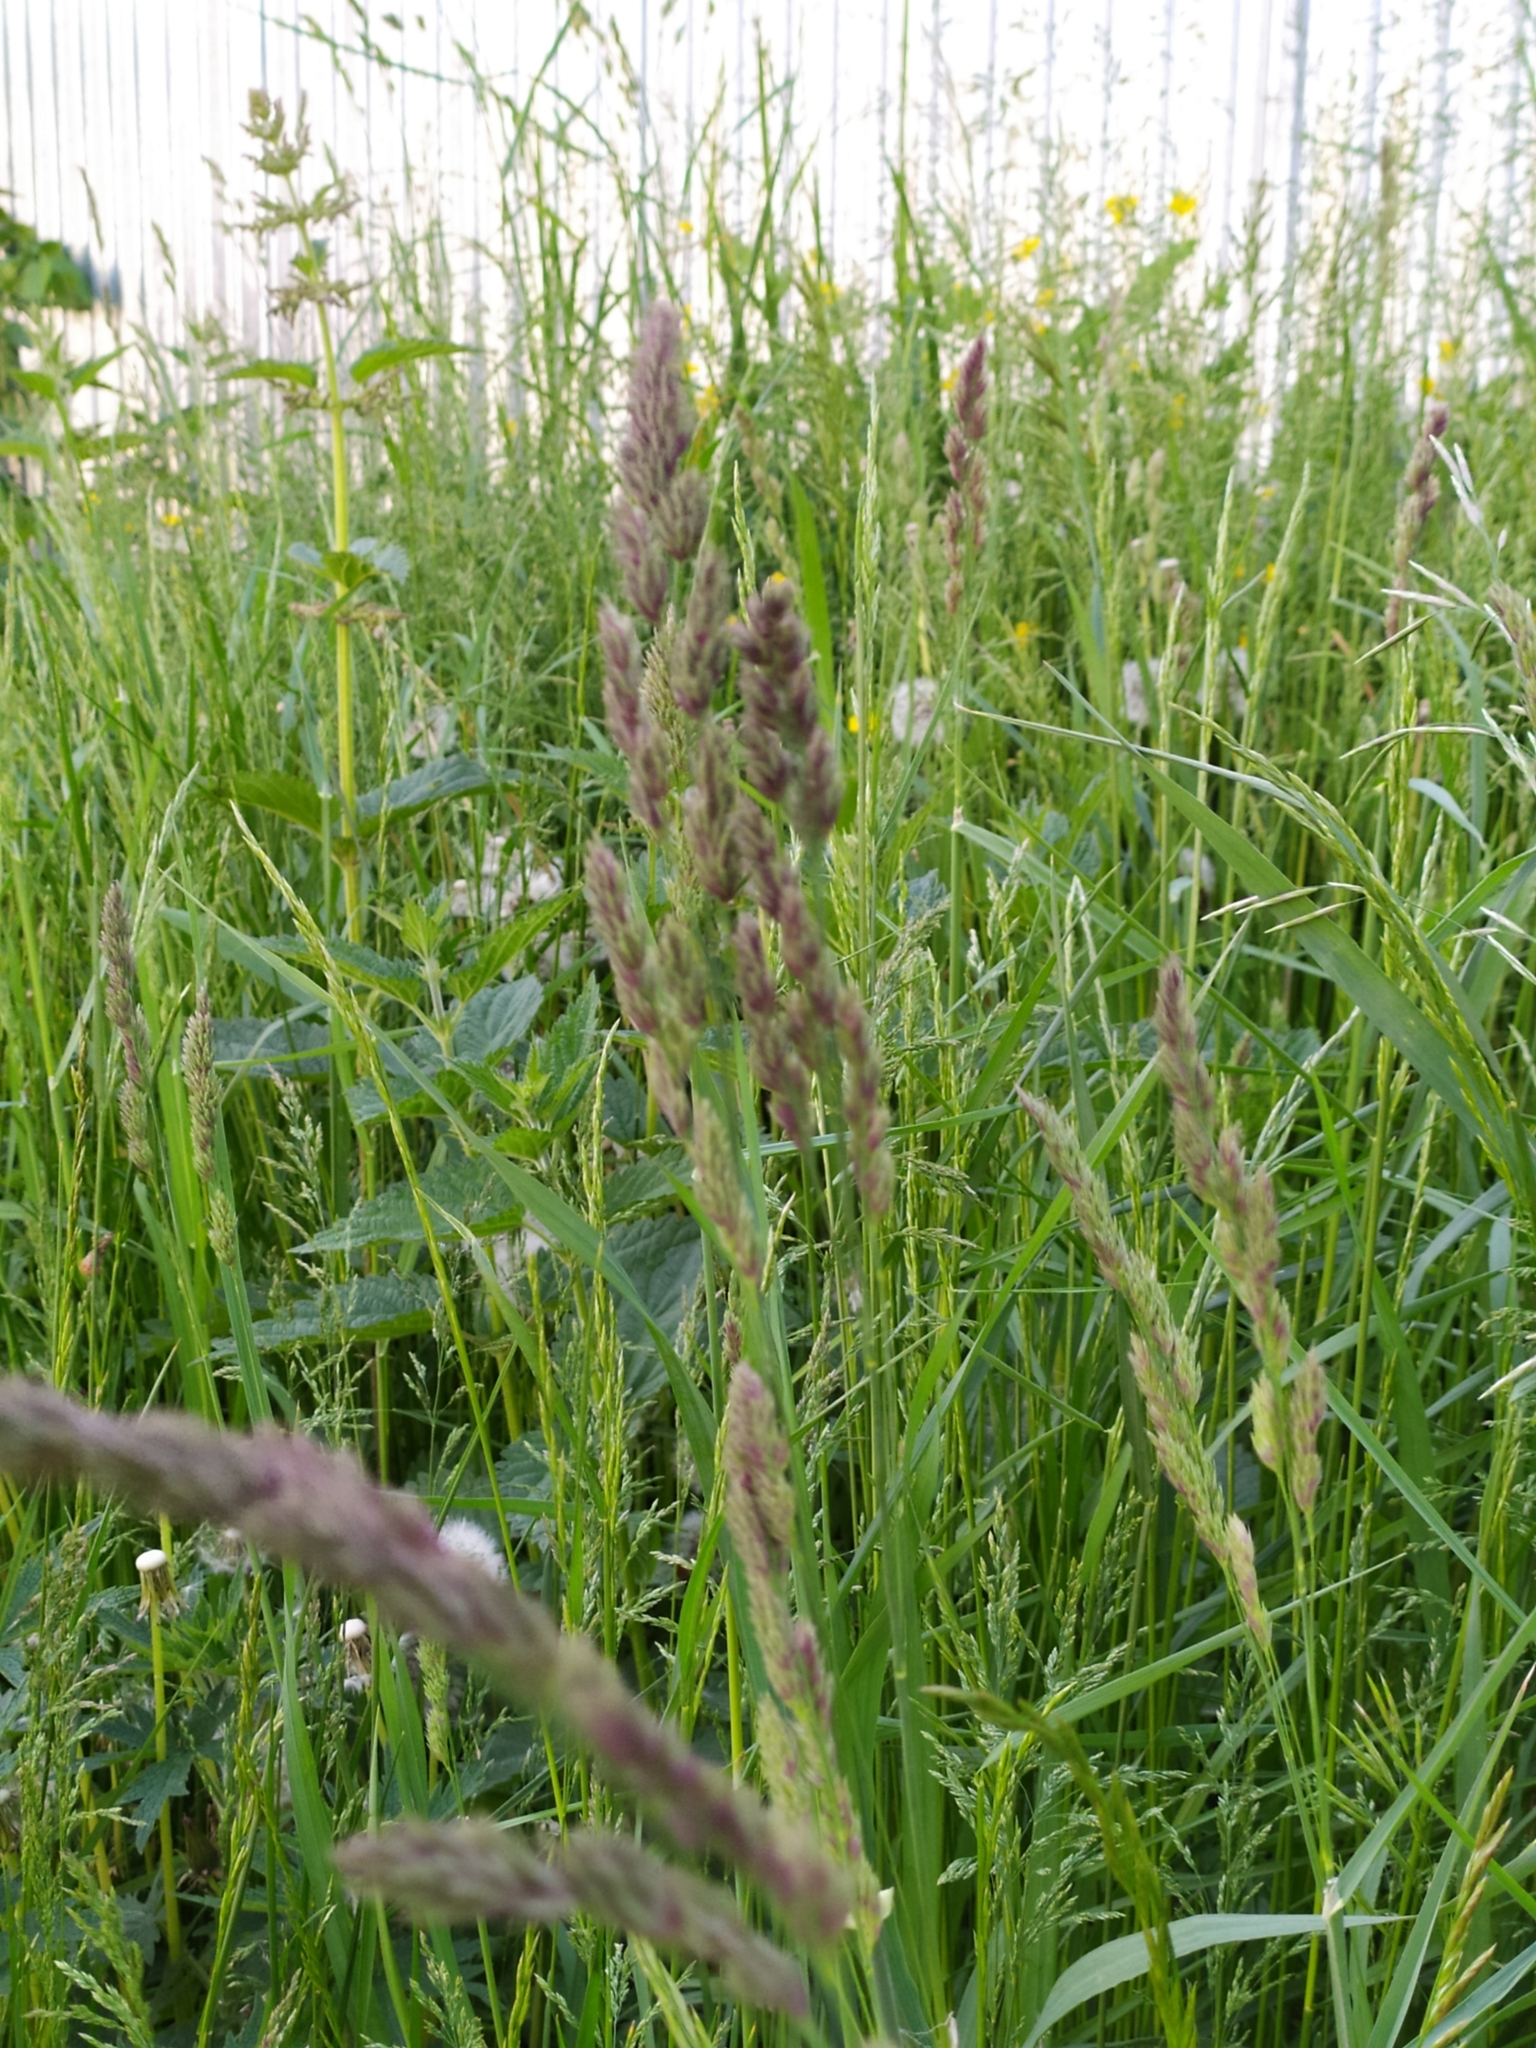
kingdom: Plantae
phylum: Tracheophyta
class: Liliopsida
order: Poales
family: Poaceae
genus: Dactylis
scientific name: Dactylis glomerata
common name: Orchardgrass
